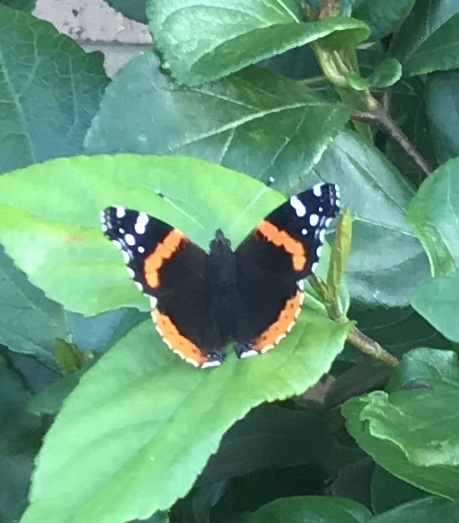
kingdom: Animalia
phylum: Arthropoda
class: Insecta
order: Lepidoptera
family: Nymphalidae
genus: Vanessa
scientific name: Vanessa atalanta
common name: Red admiral
